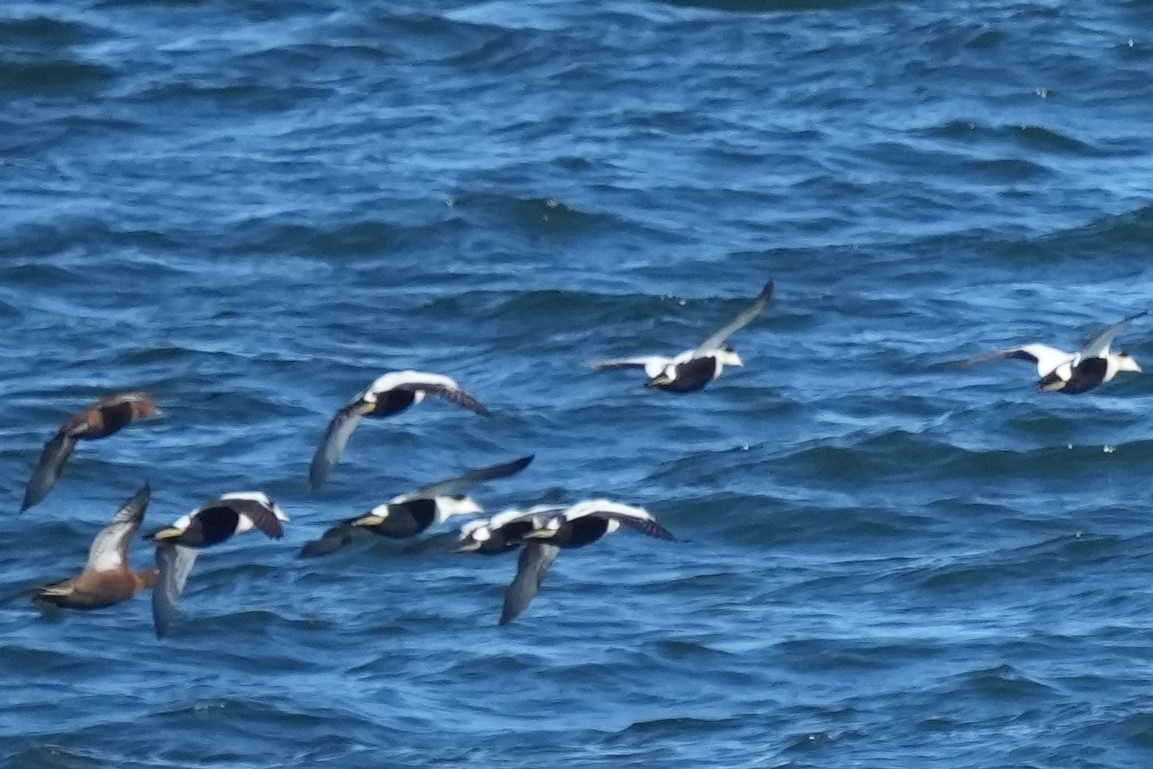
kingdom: Animalia
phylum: Chordata
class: Aves
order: Anseriformes
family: Anatidae
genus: Somateria
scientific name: Somateria mollissima
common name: Common eider
